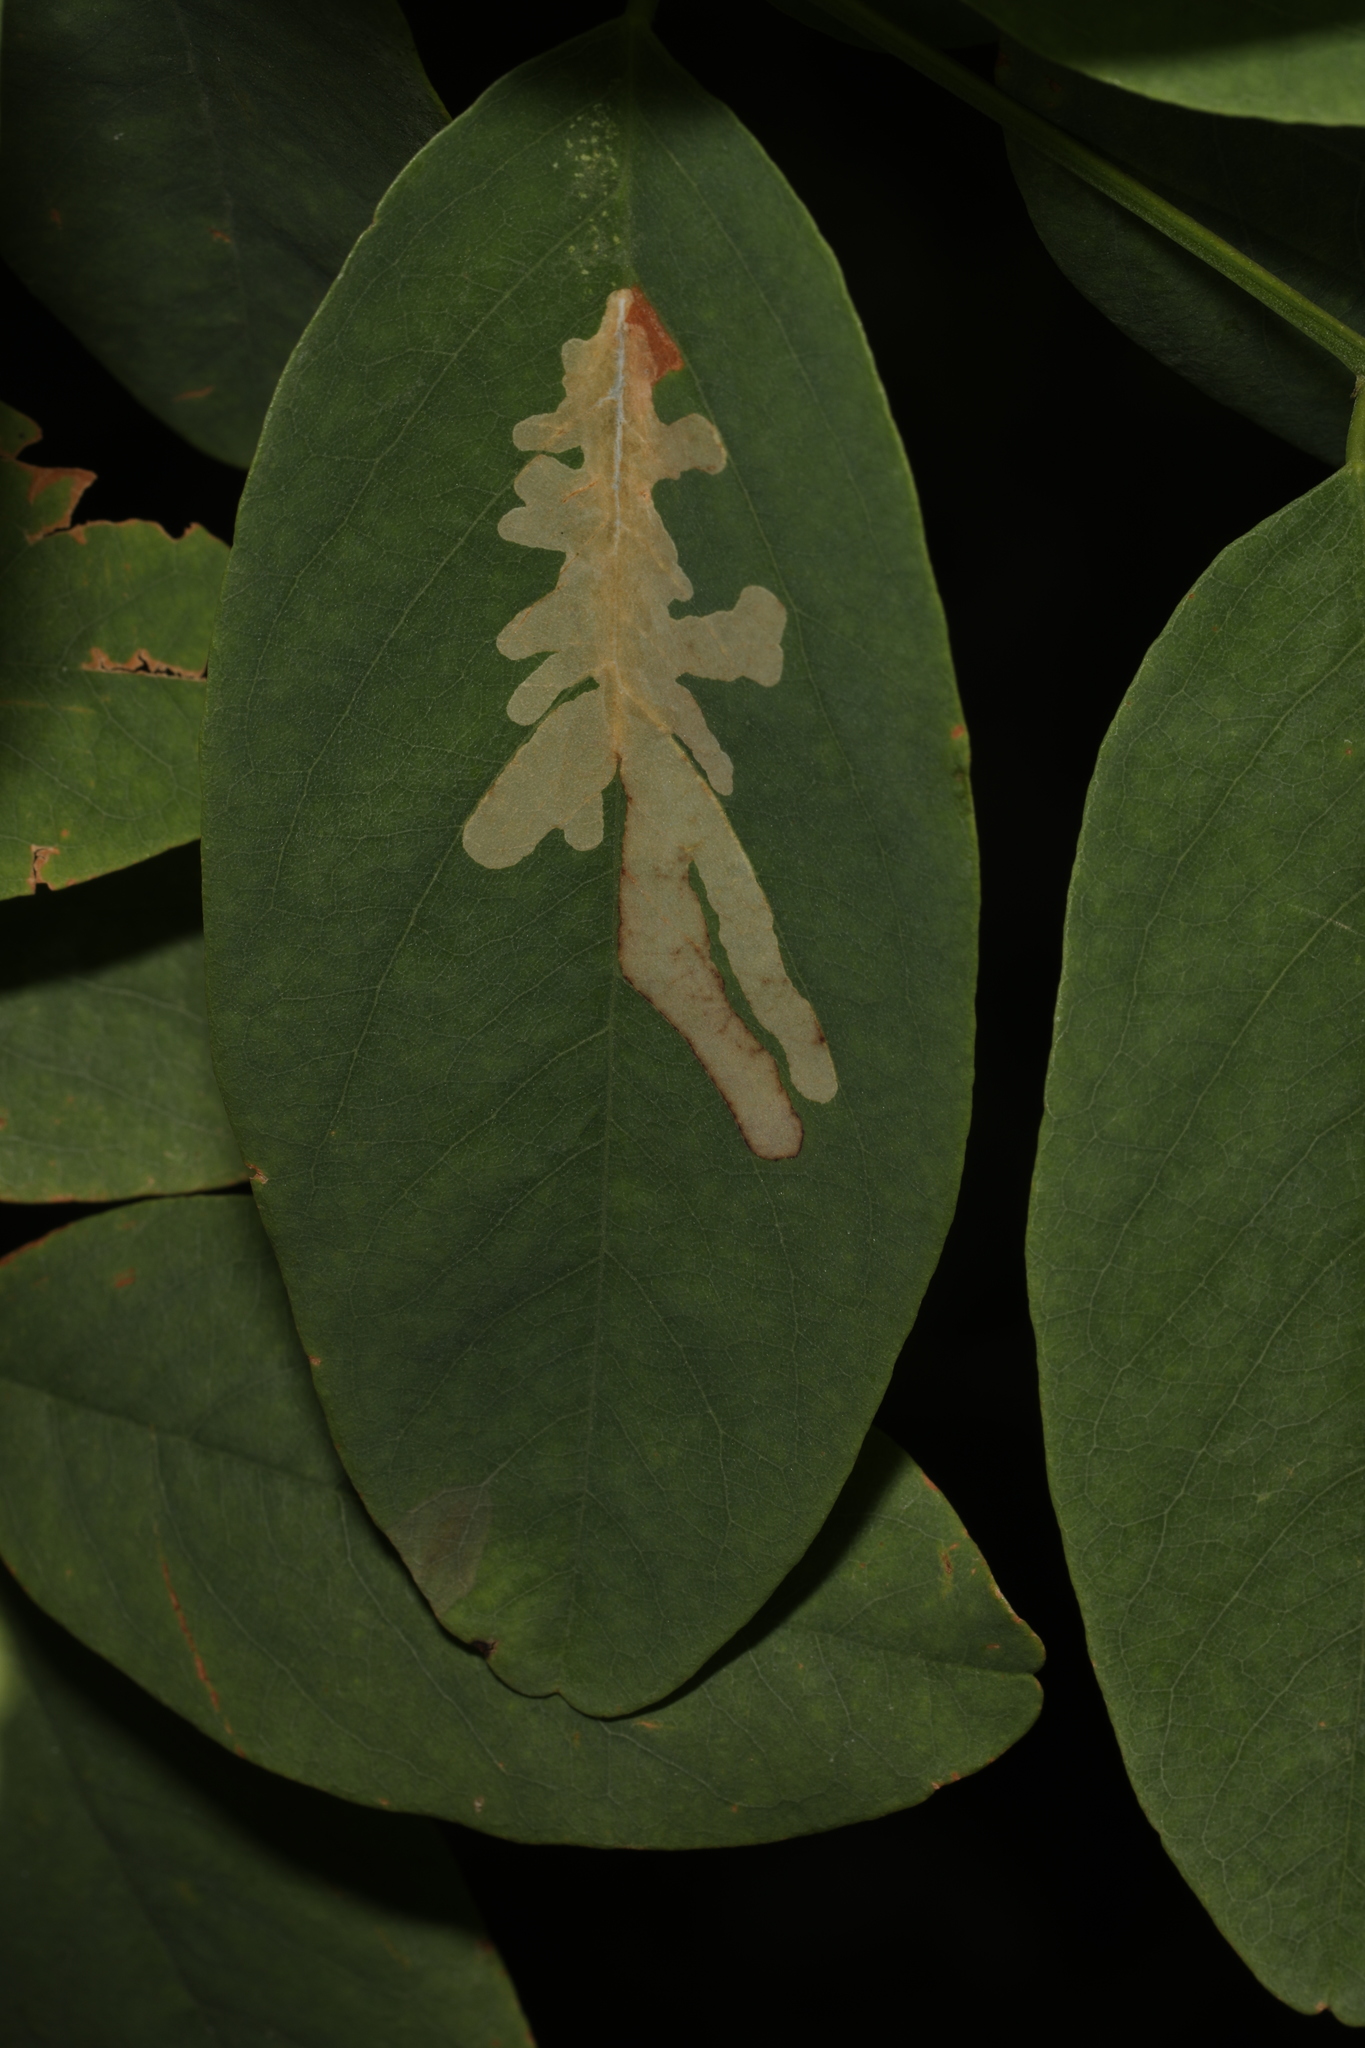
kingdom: Animalia
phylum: Arthropoda
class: Insecta
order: Lepidoptera
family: Gracillariidae
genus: Parectopa
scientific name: Parectopa robiniella
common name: Locust digitate leafminer
